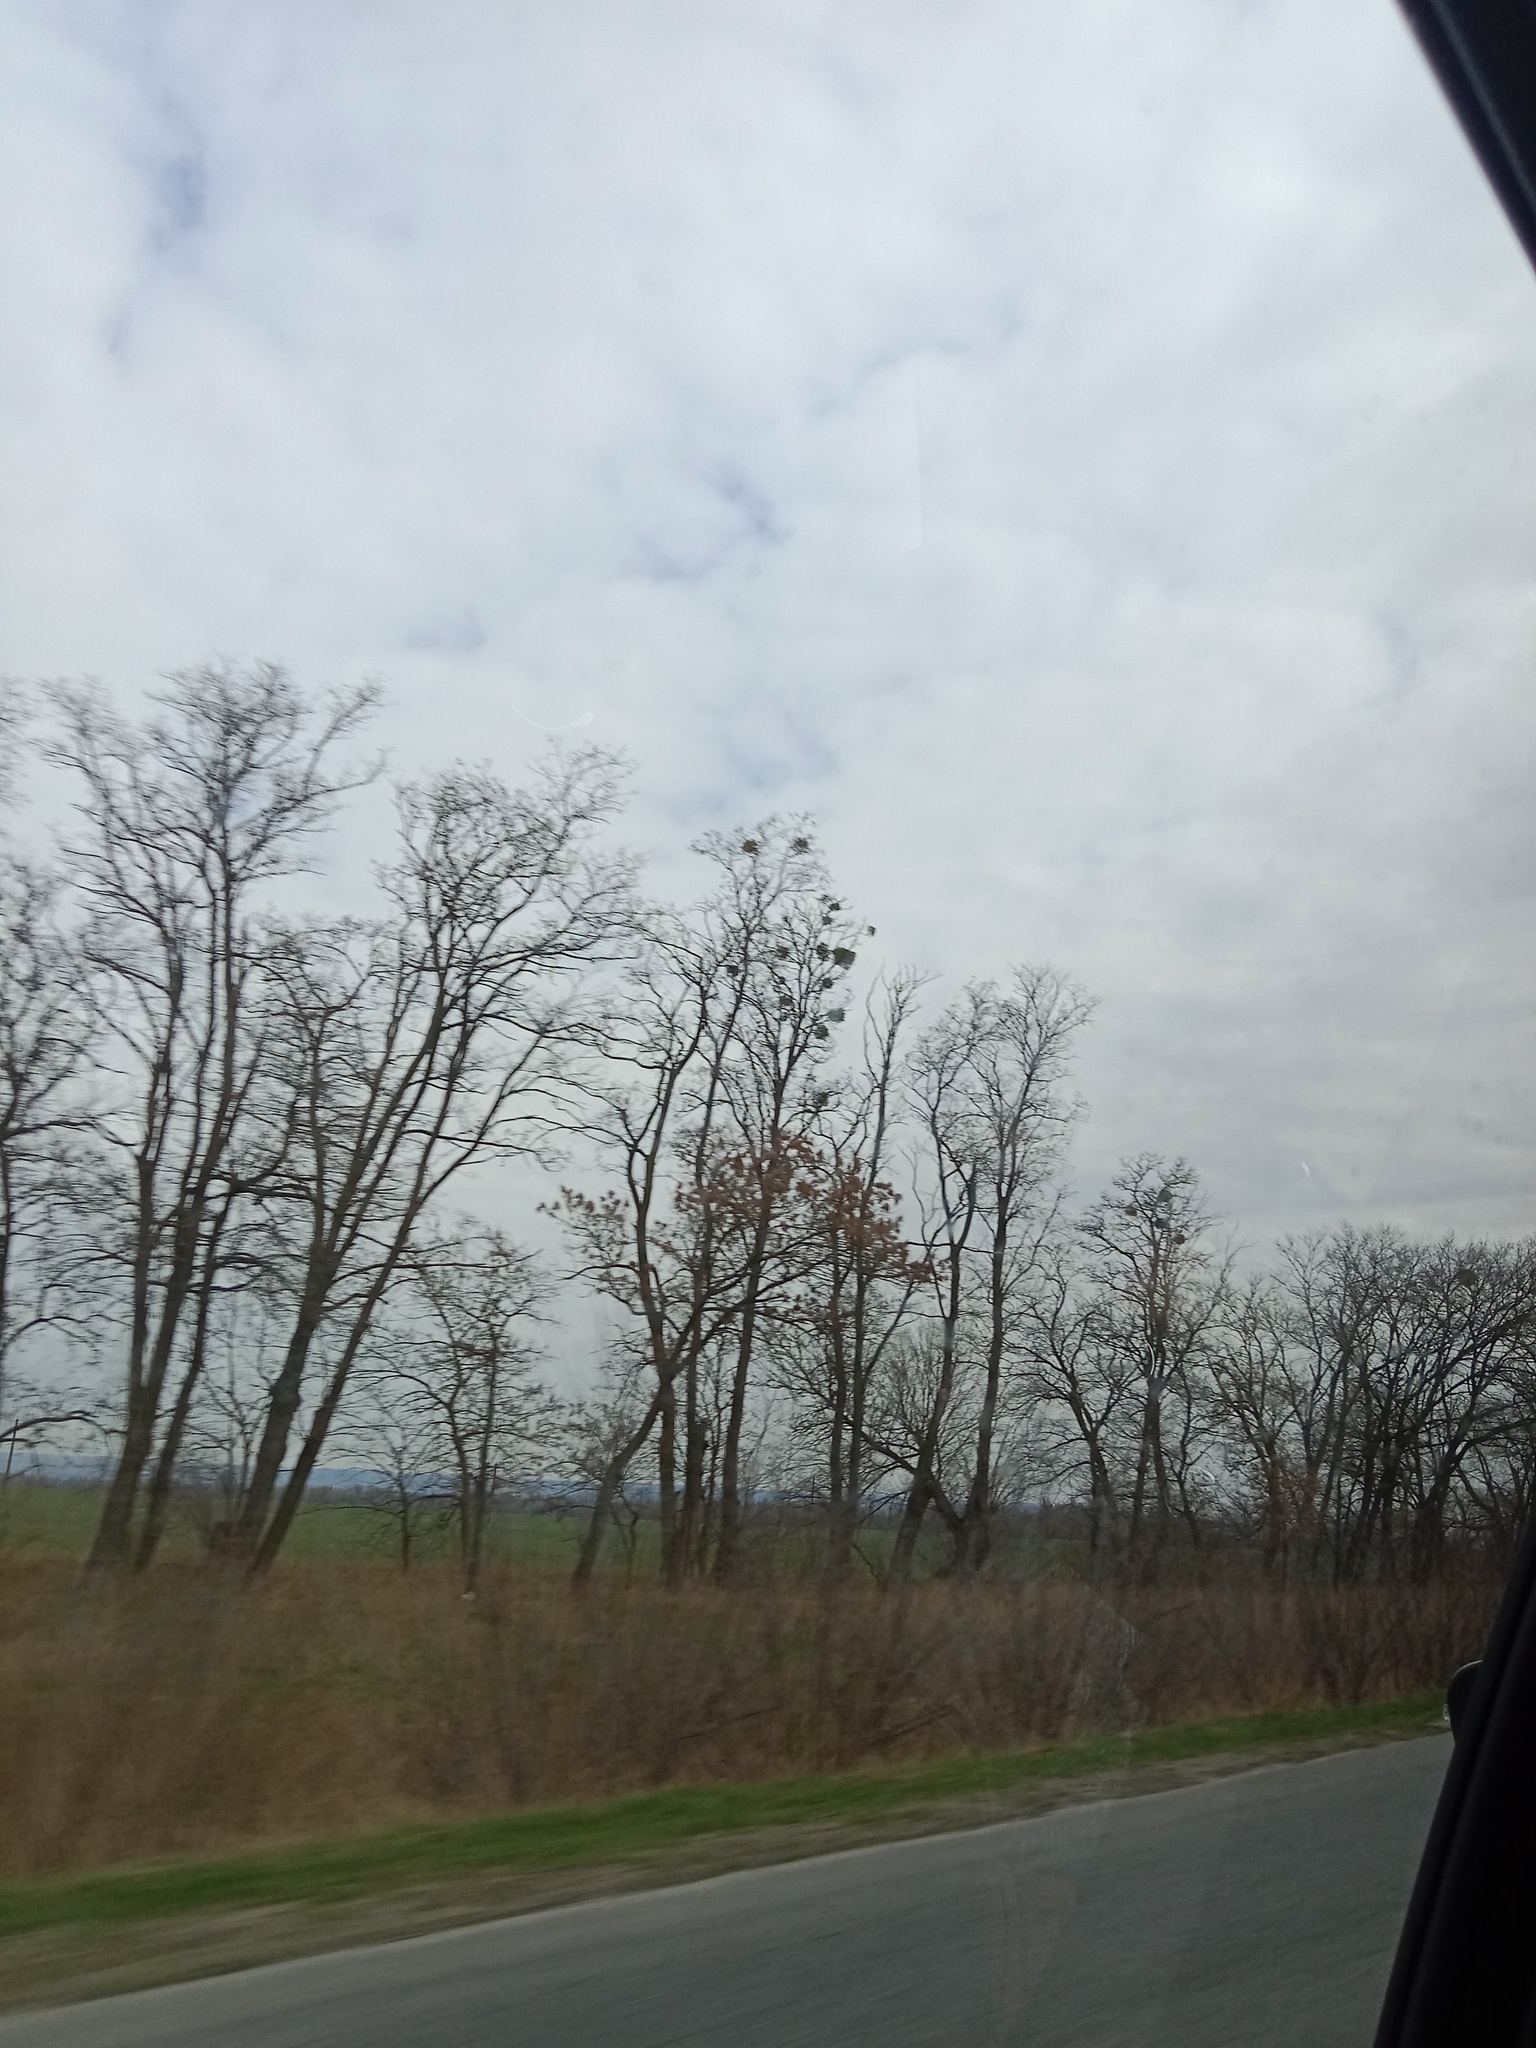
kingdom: Plantae
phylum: Tracheophyta
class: Magnoliopsida
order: Santalales
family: Viscaceae
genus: Viscum
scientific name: Viscum album
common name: Mistletoe
